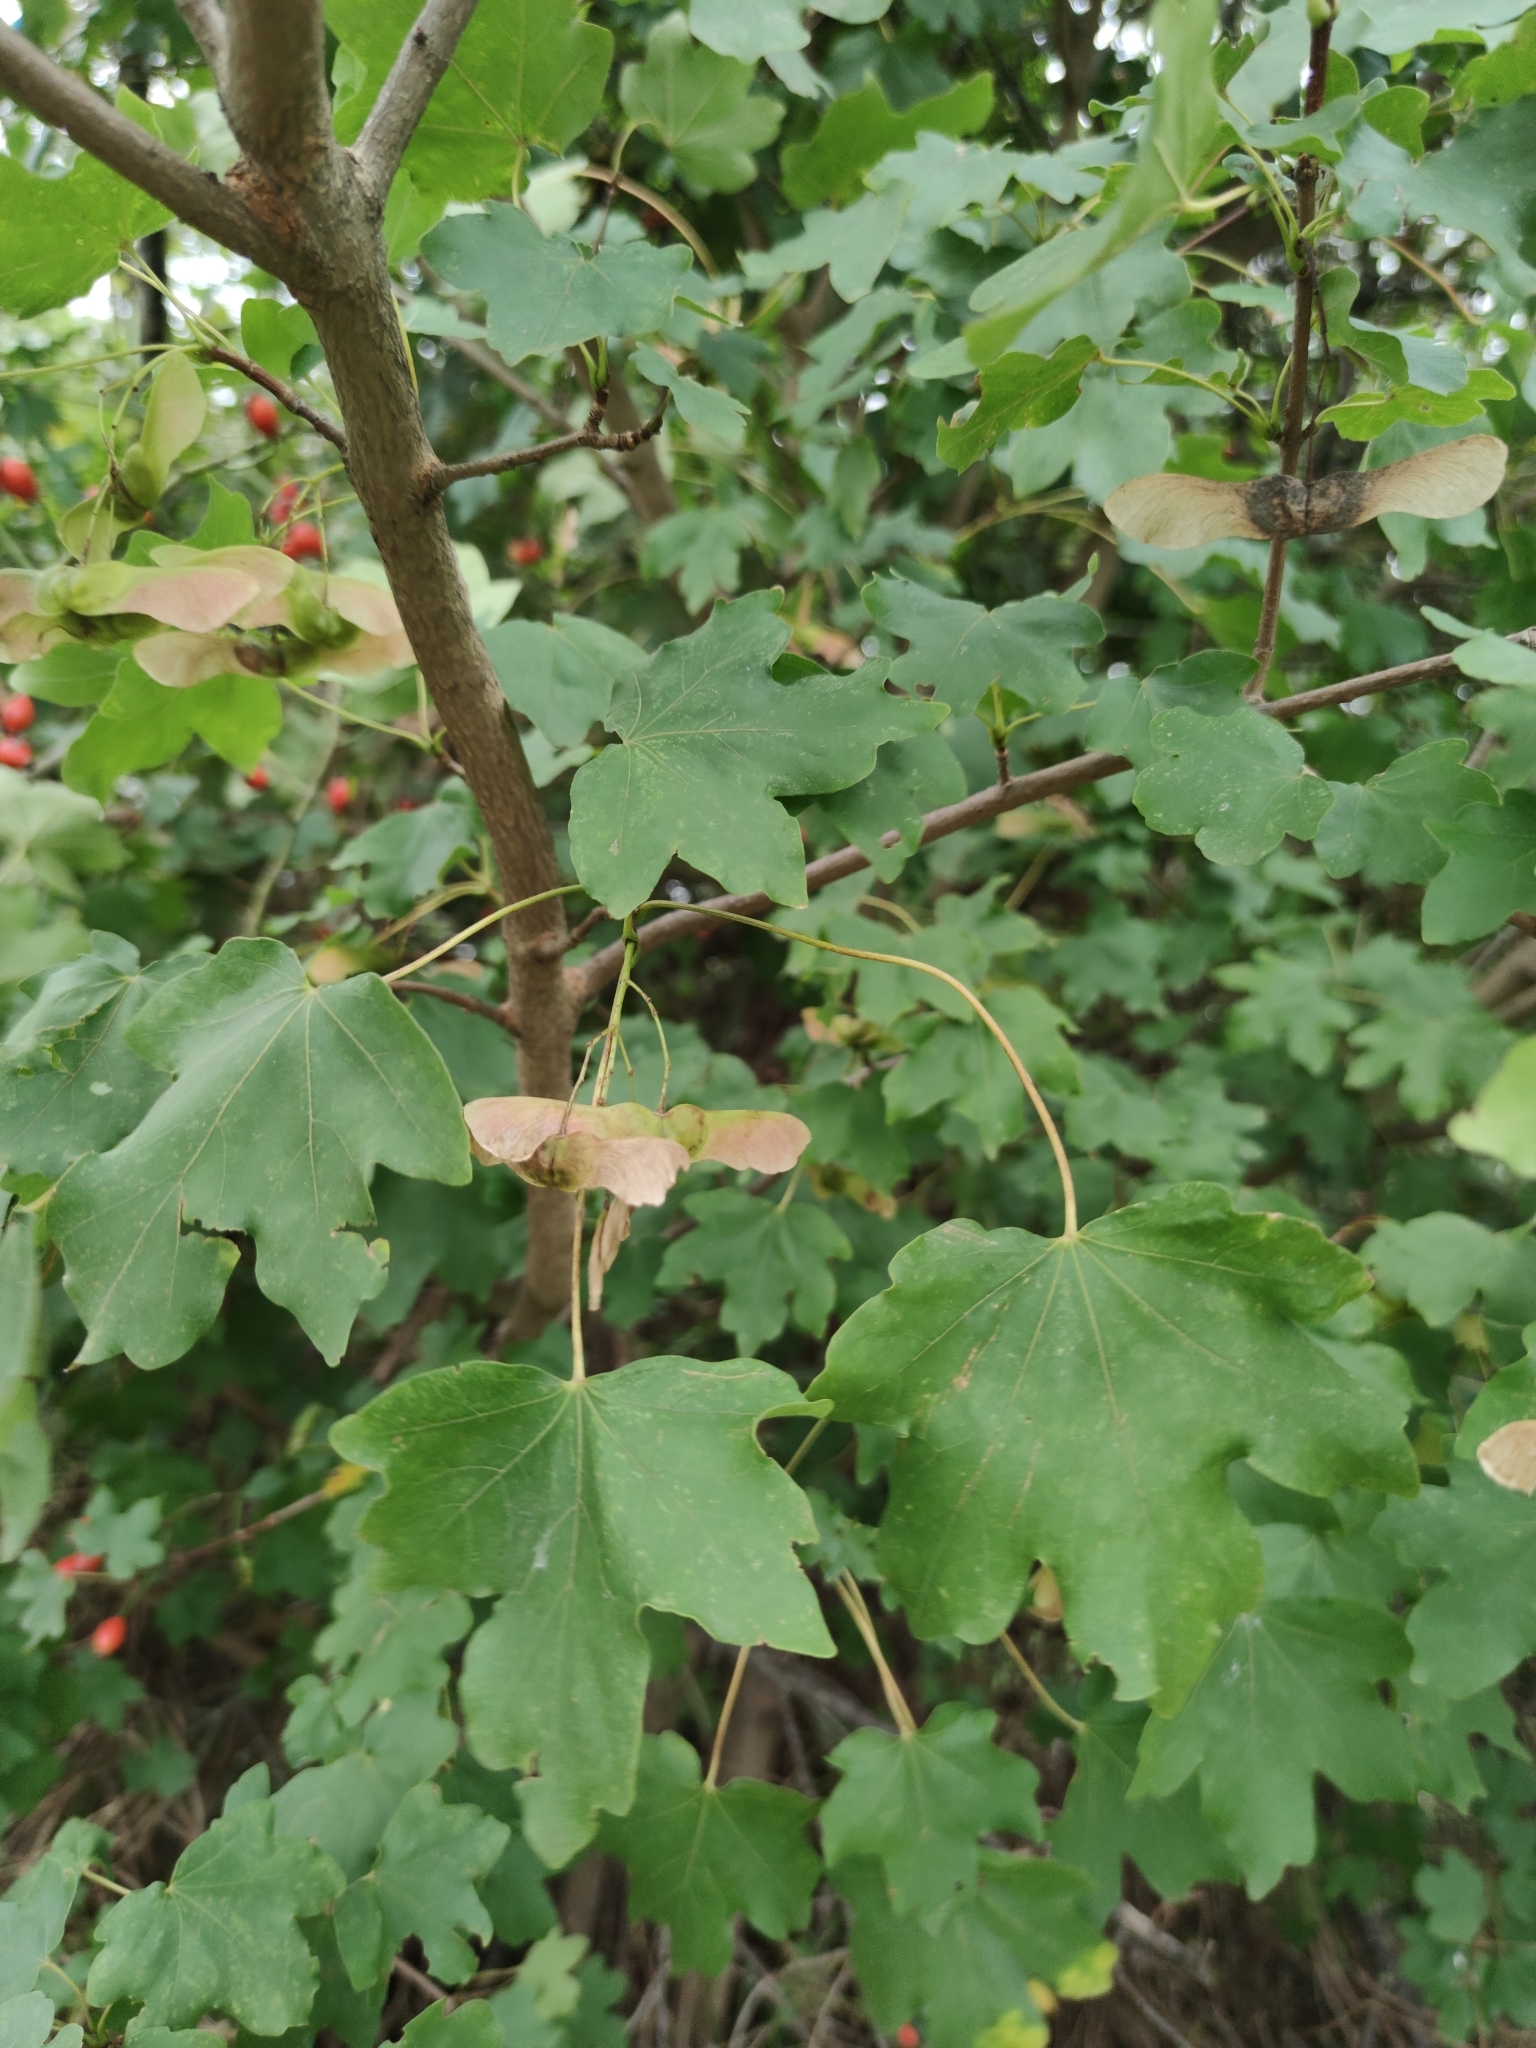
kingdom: Plantae
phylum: Tracheophyta
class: Magnoliopsida
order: Sapindales
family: Sapindaceae
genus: Acer
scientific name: Acer campestre
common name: Field maple
